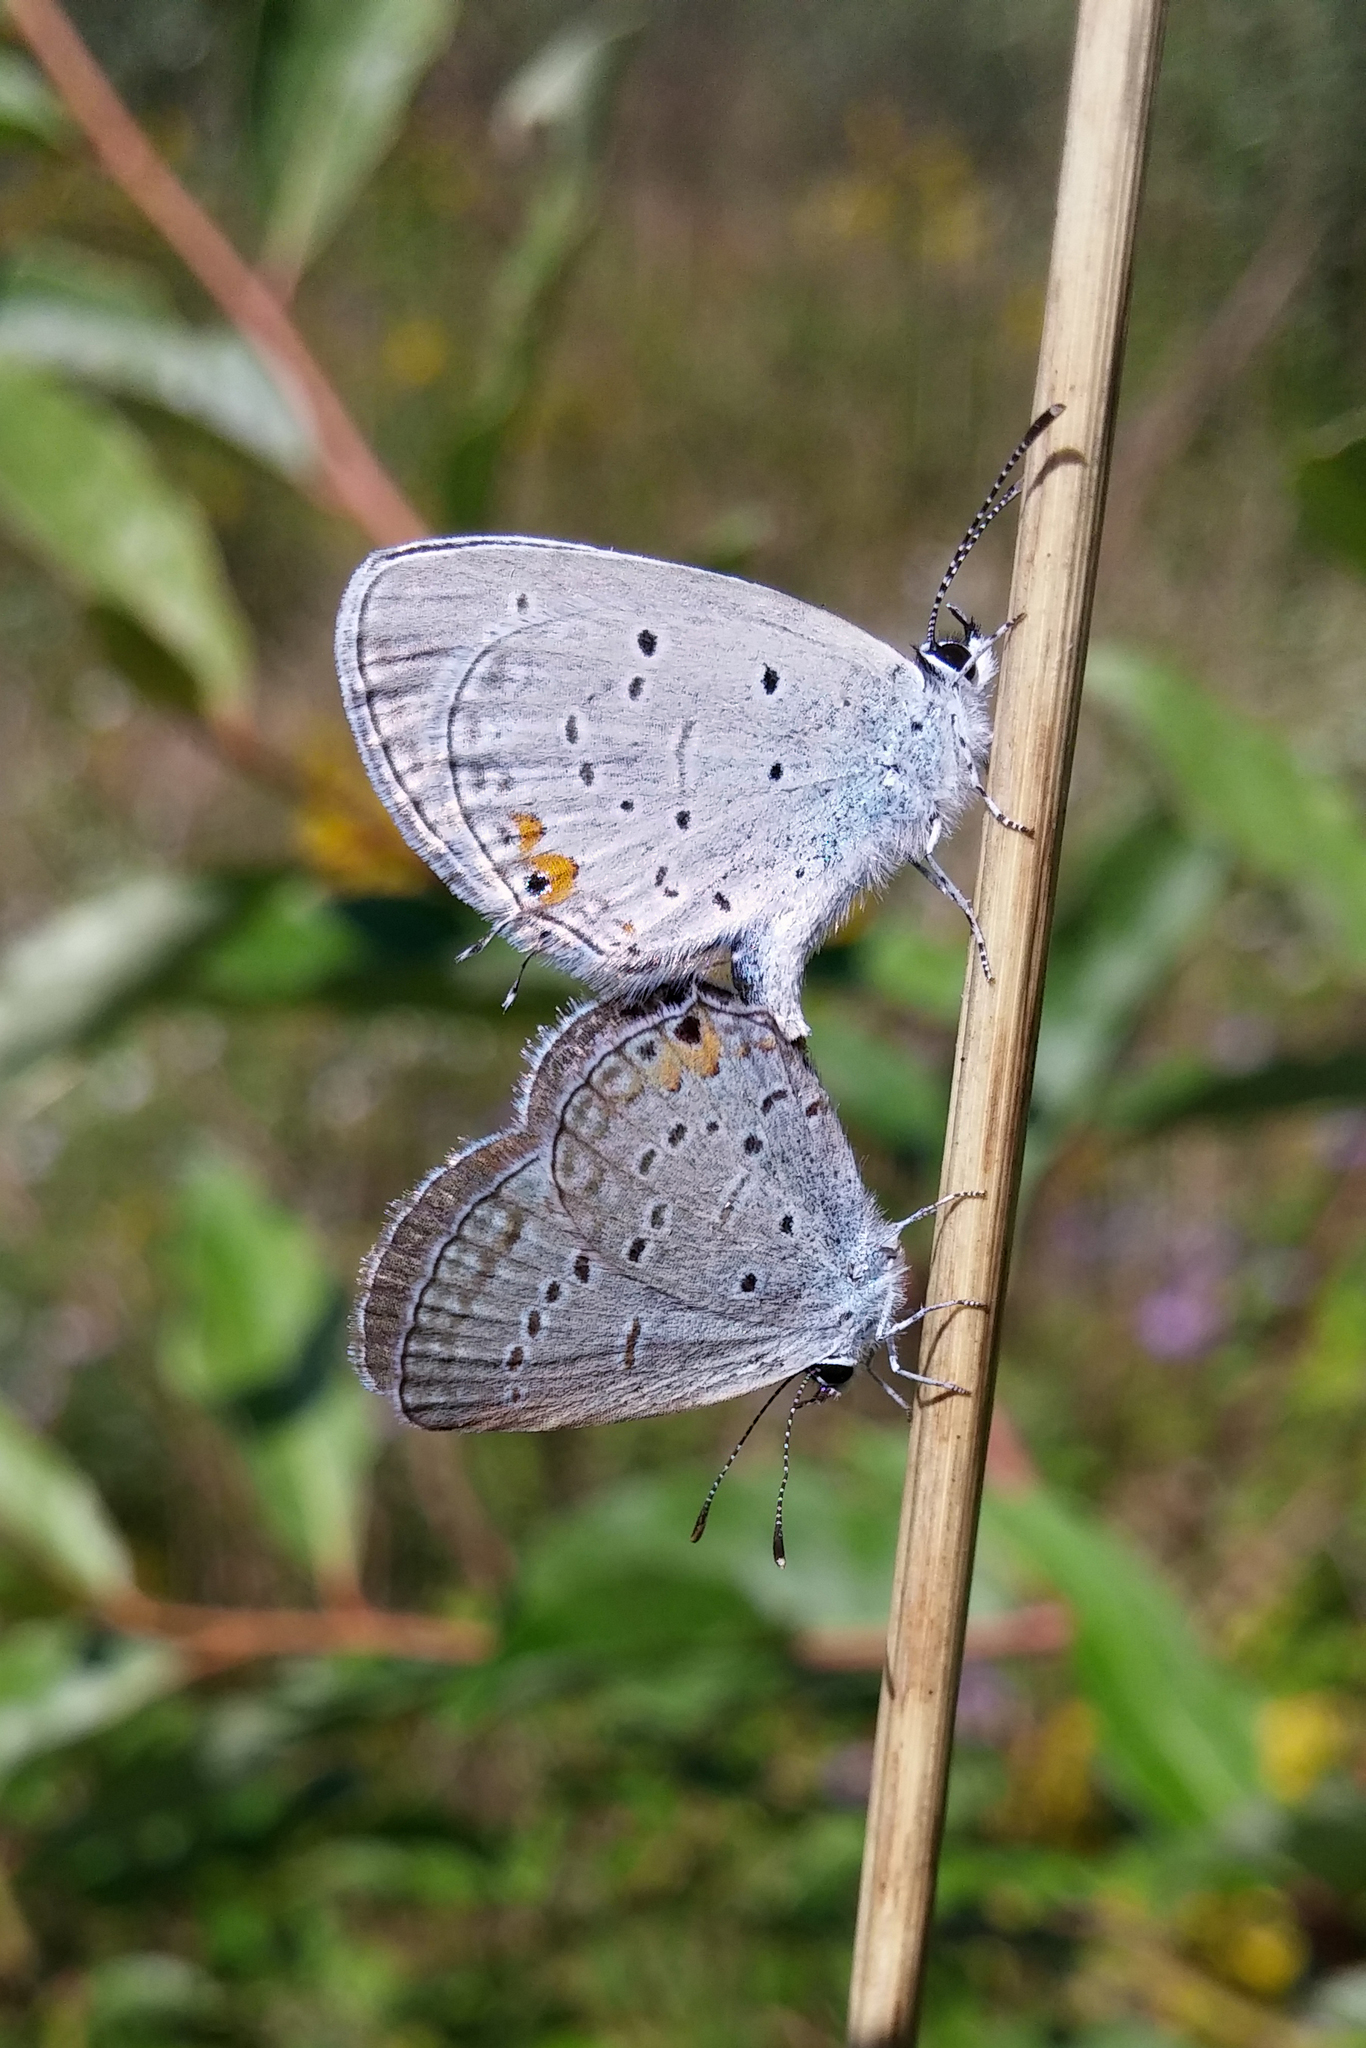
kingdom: Animalia
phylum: Arthropoda
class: Insecta
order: Lepidoptera
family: Lycaenidae
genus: Elkalyce
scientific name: Elkalyce comyntas
